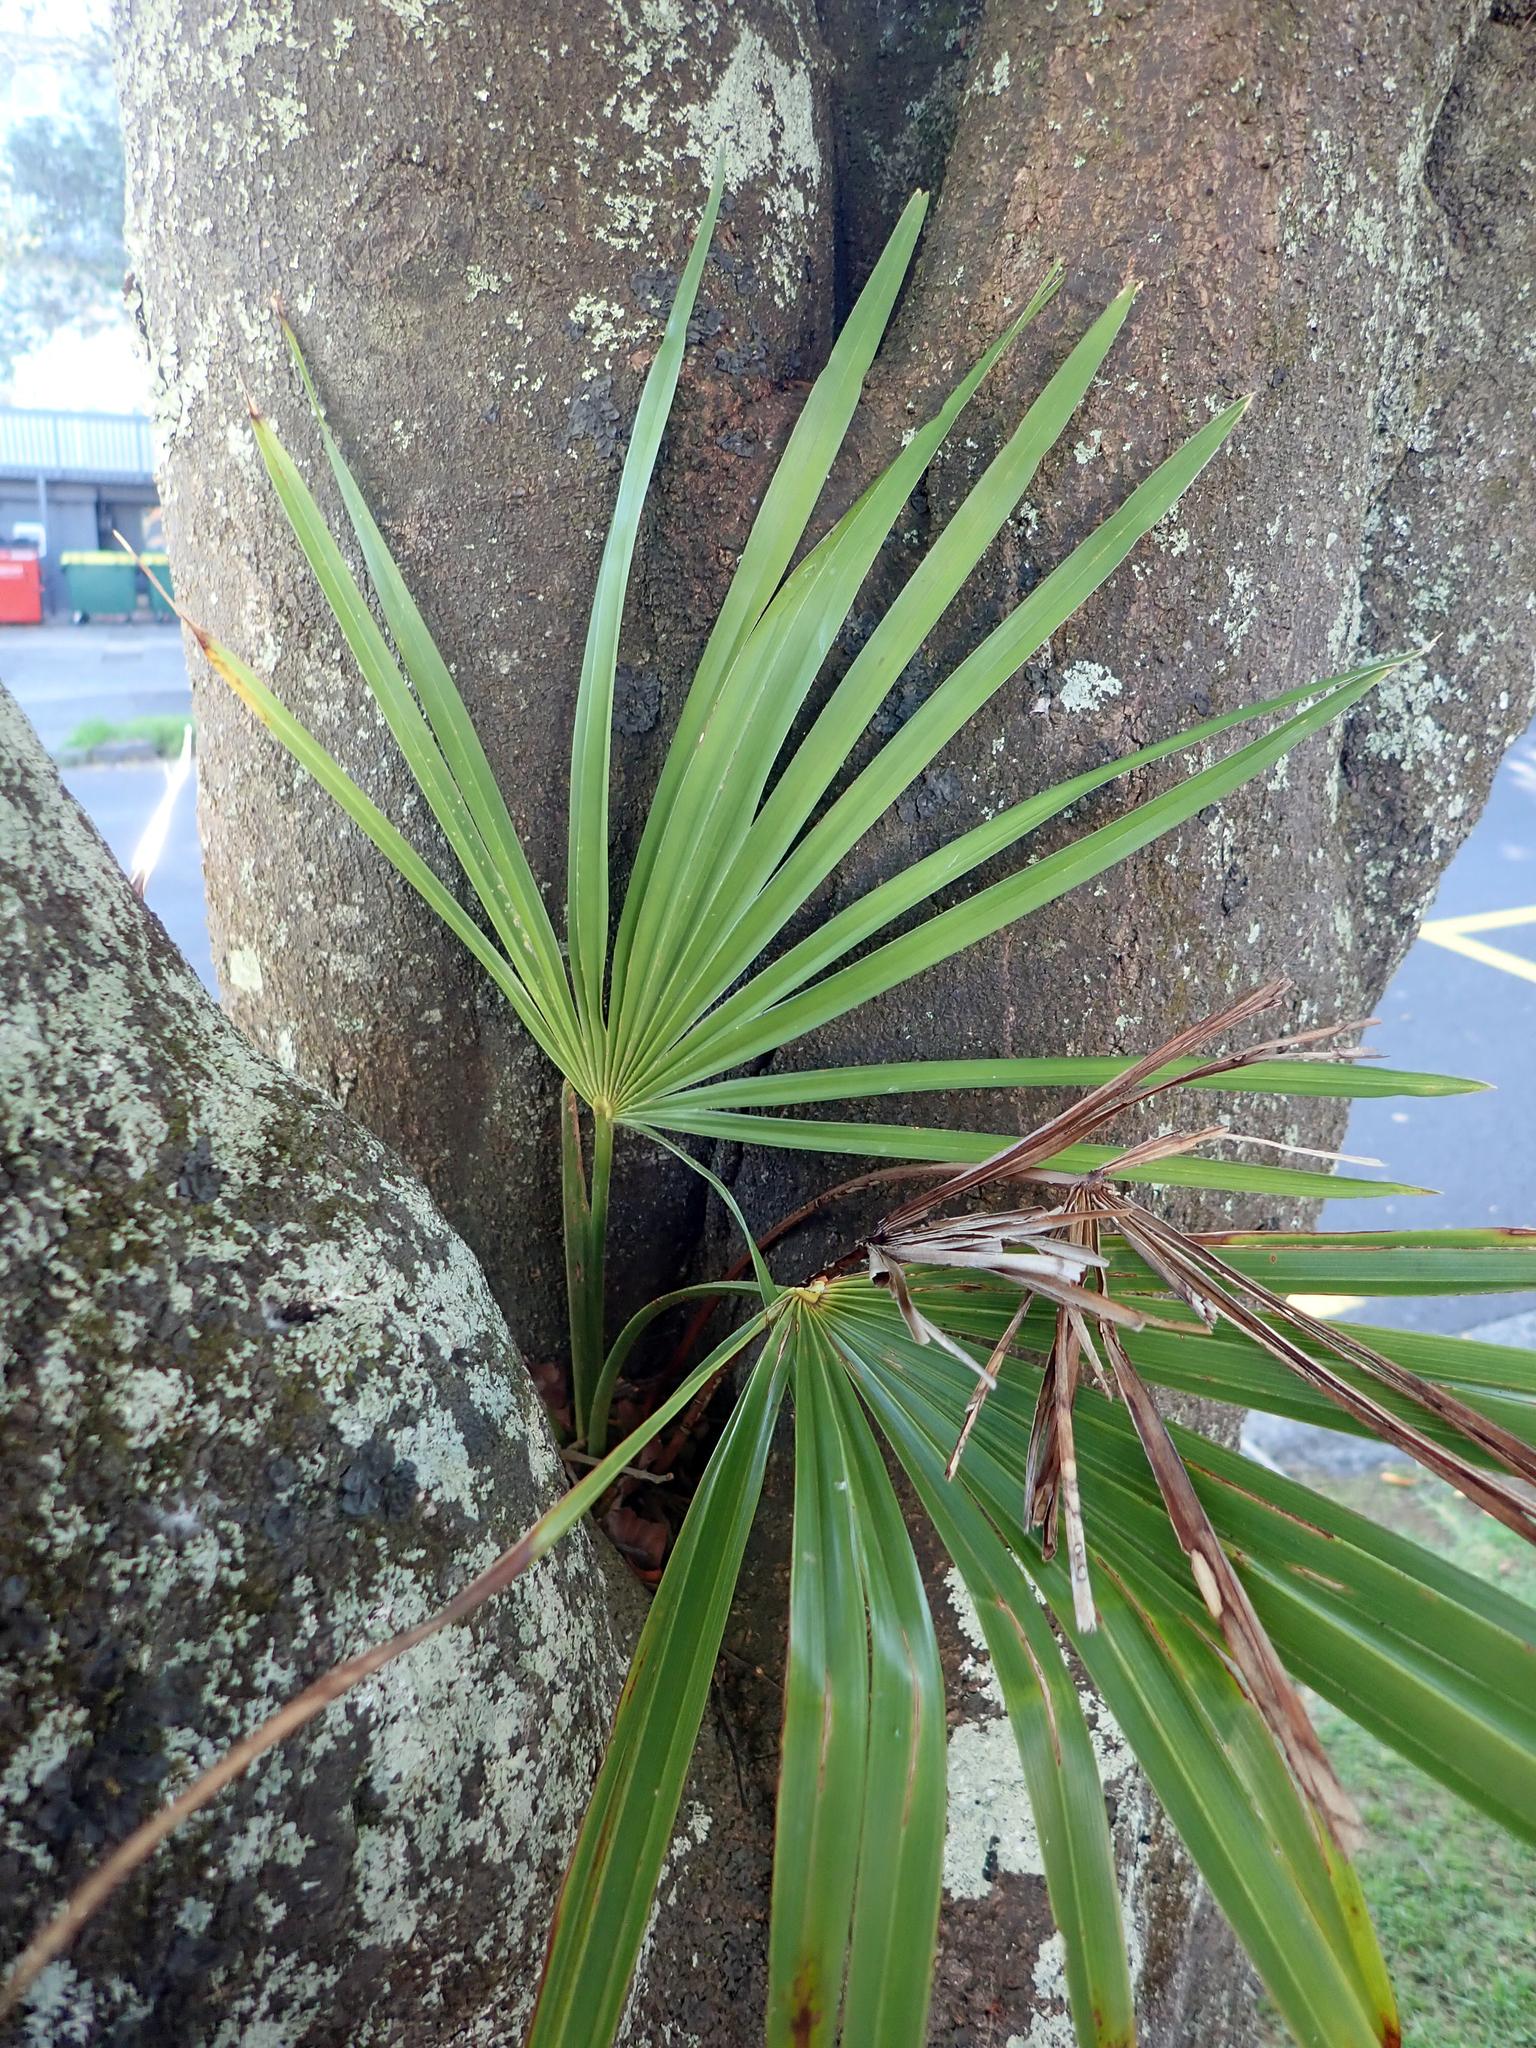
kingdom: Plantae
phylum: Tracheophyta
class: Liliopsida
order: Arecales
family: Arecaceae
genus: Trachycarpus
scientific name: Trachycarpus fortunei
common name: Chusan palm
